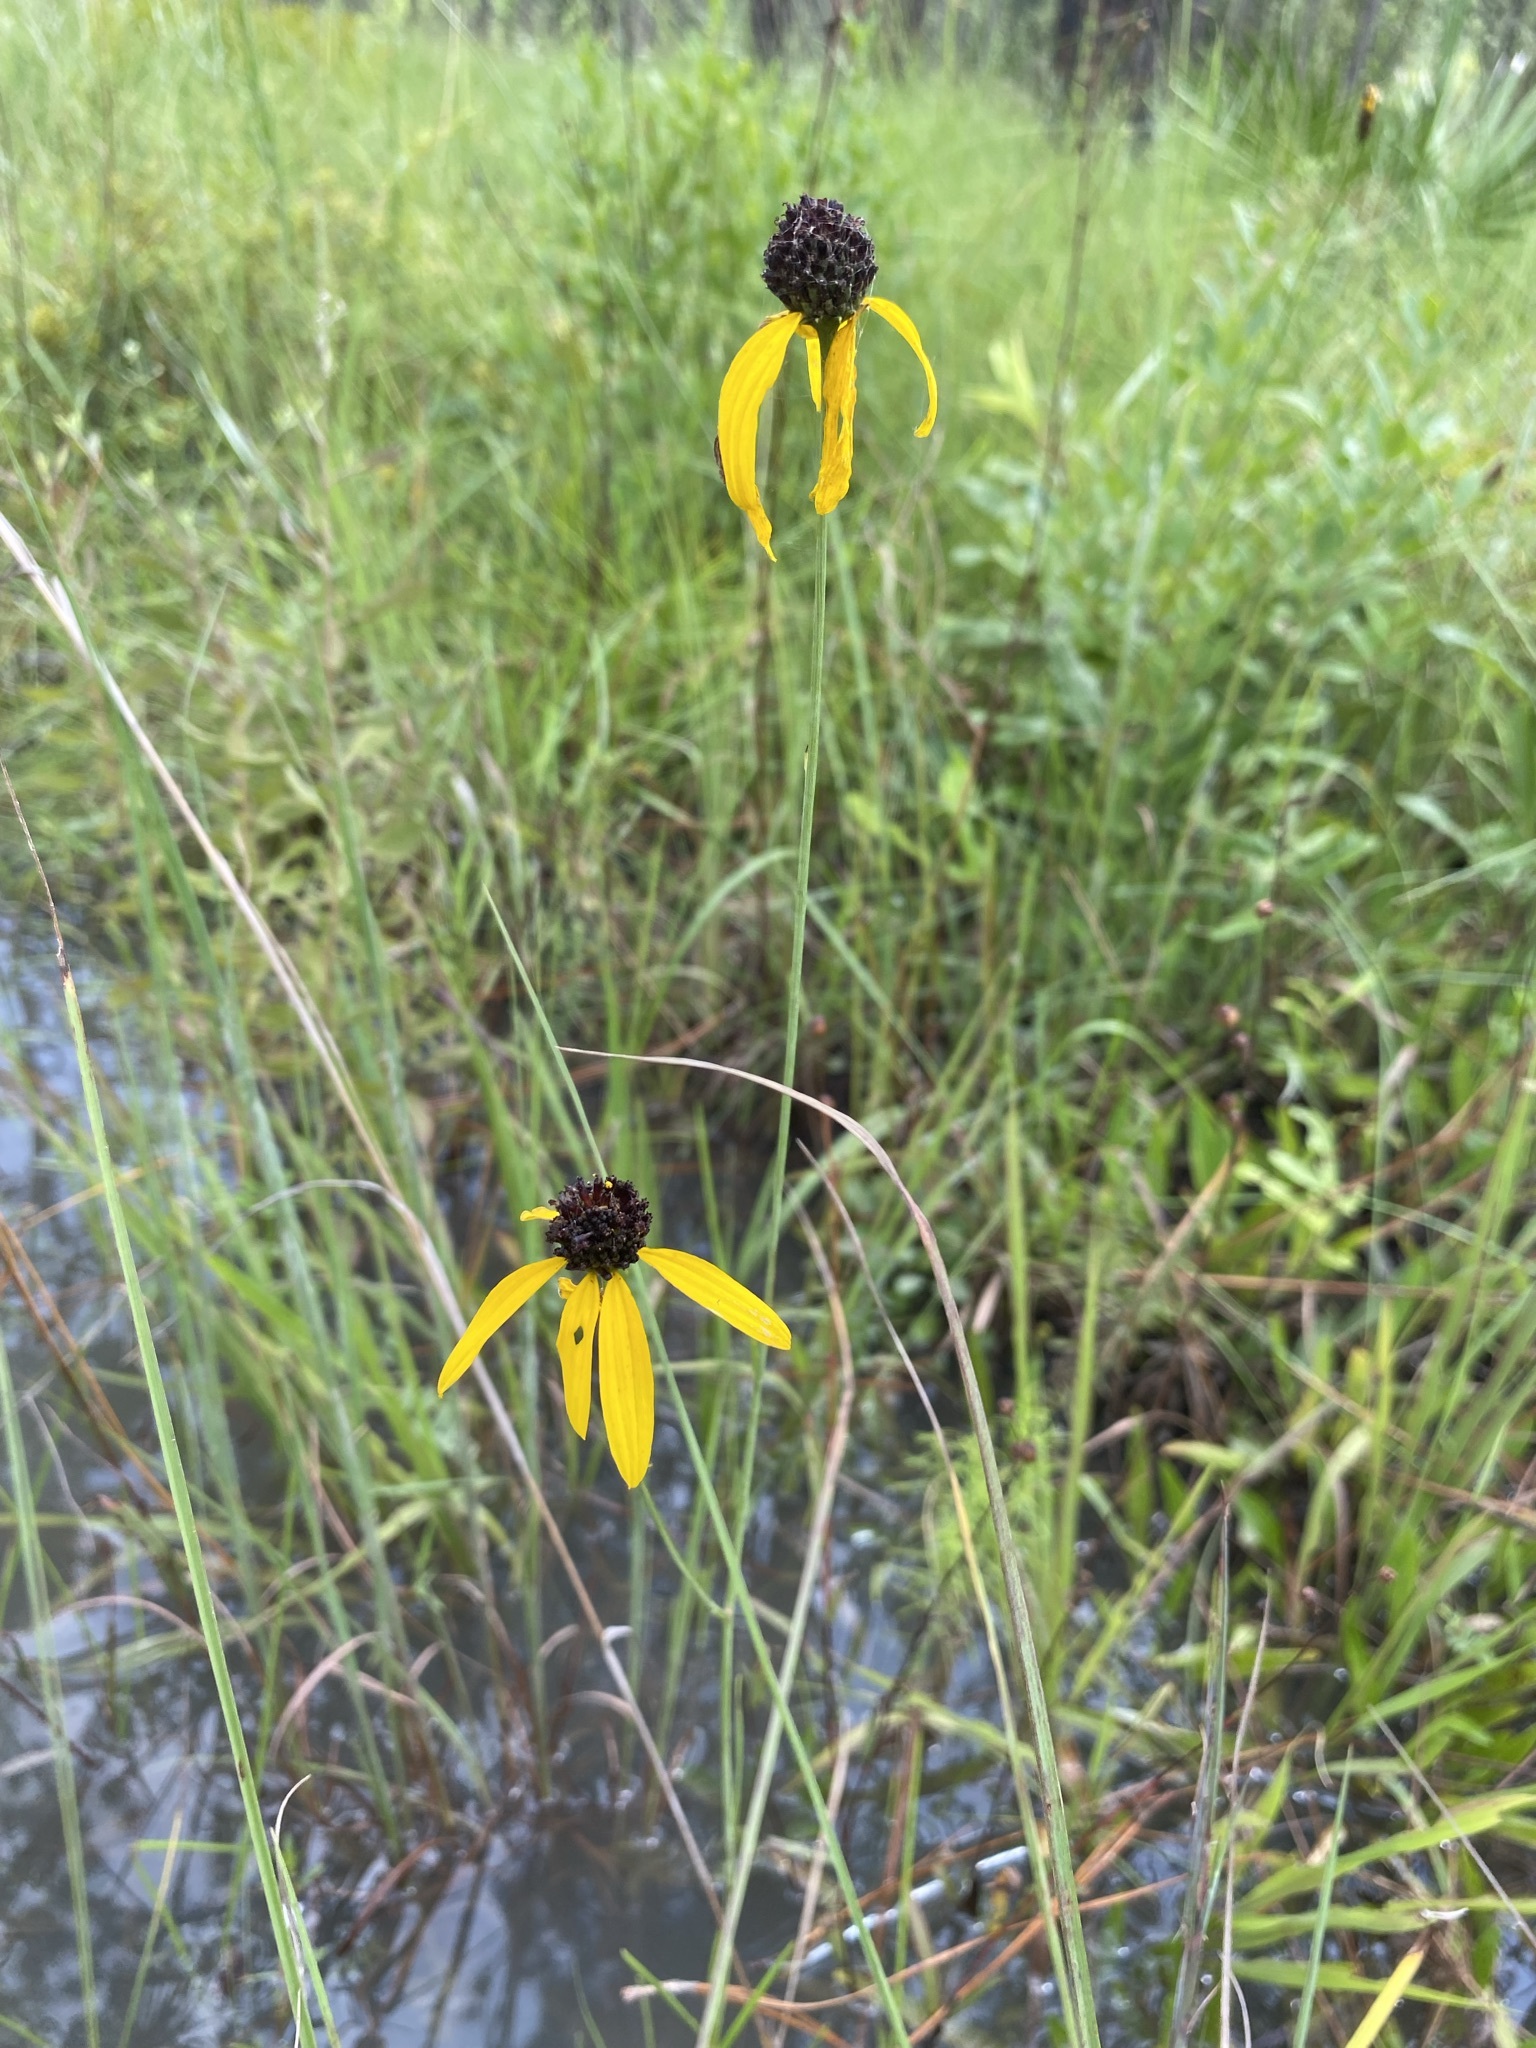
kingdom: Plantae
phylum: Tracheophyta
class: Magnoliopsida
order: Asterales
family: Asteraceae
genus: Rudbeckia
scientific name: Rudbeckia mohrii
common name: Grassy coneflower
